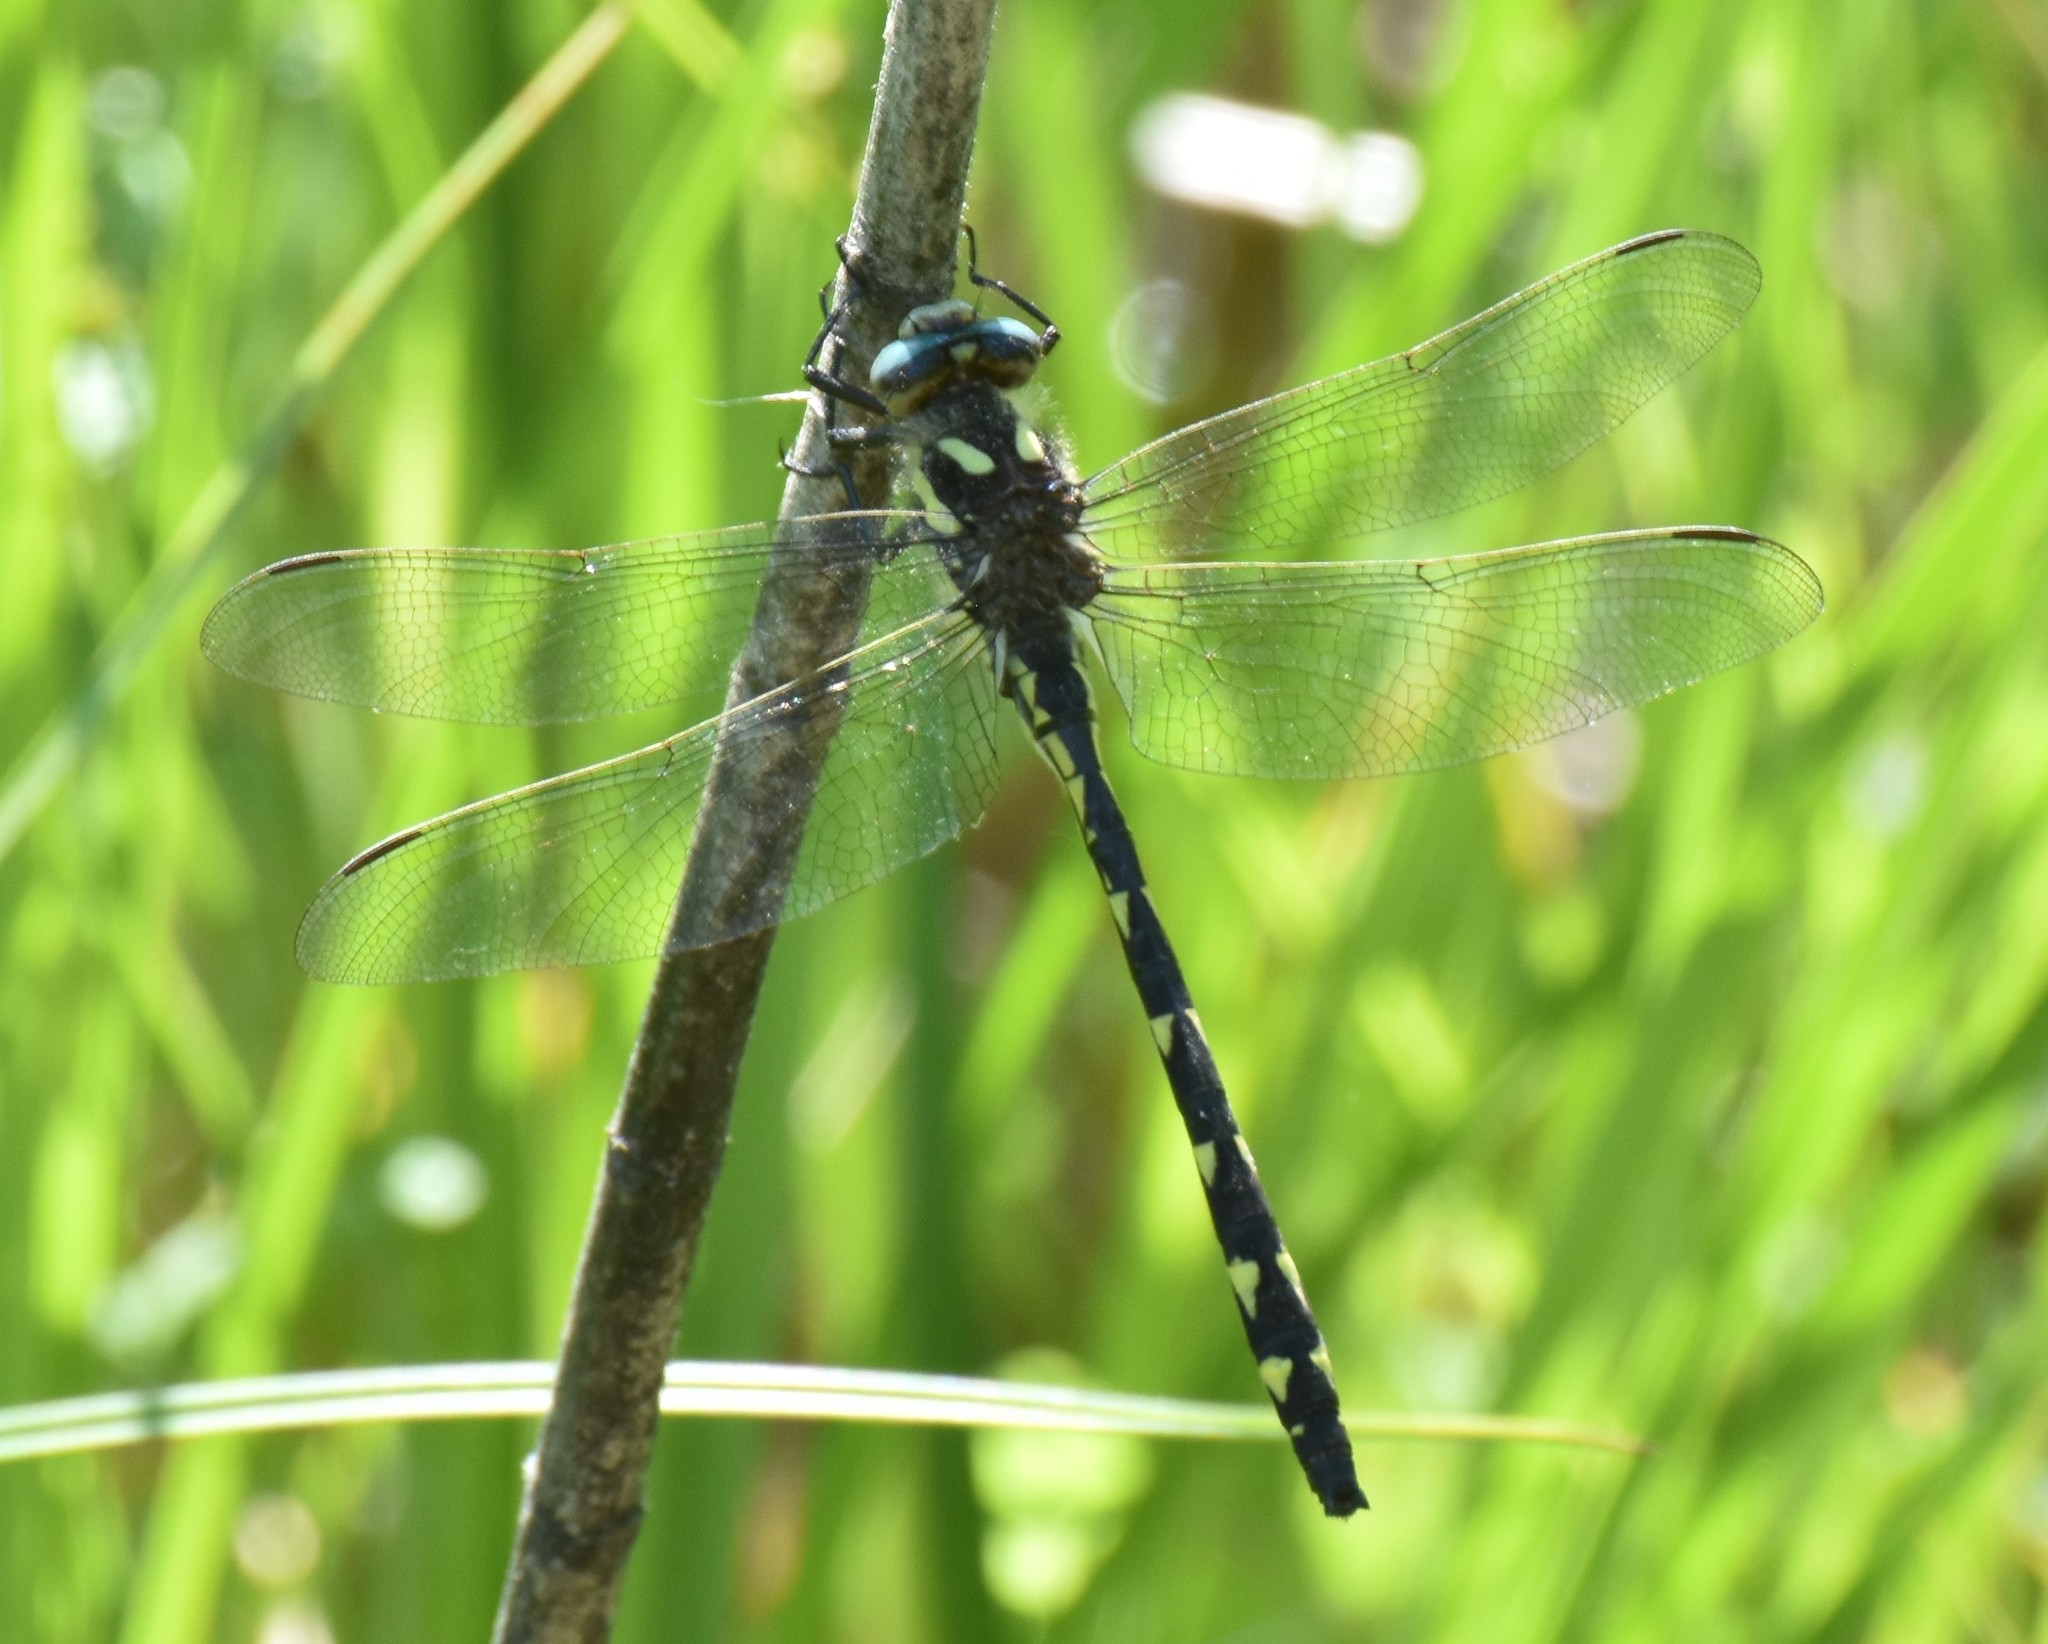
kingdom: Animalia
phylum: Arthropoda
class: Insecta
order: Odonata
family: Cordulegastridae
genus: Cordulegaster
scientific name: Cordulegaster diastatops
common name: Delta-spotted spiketail
